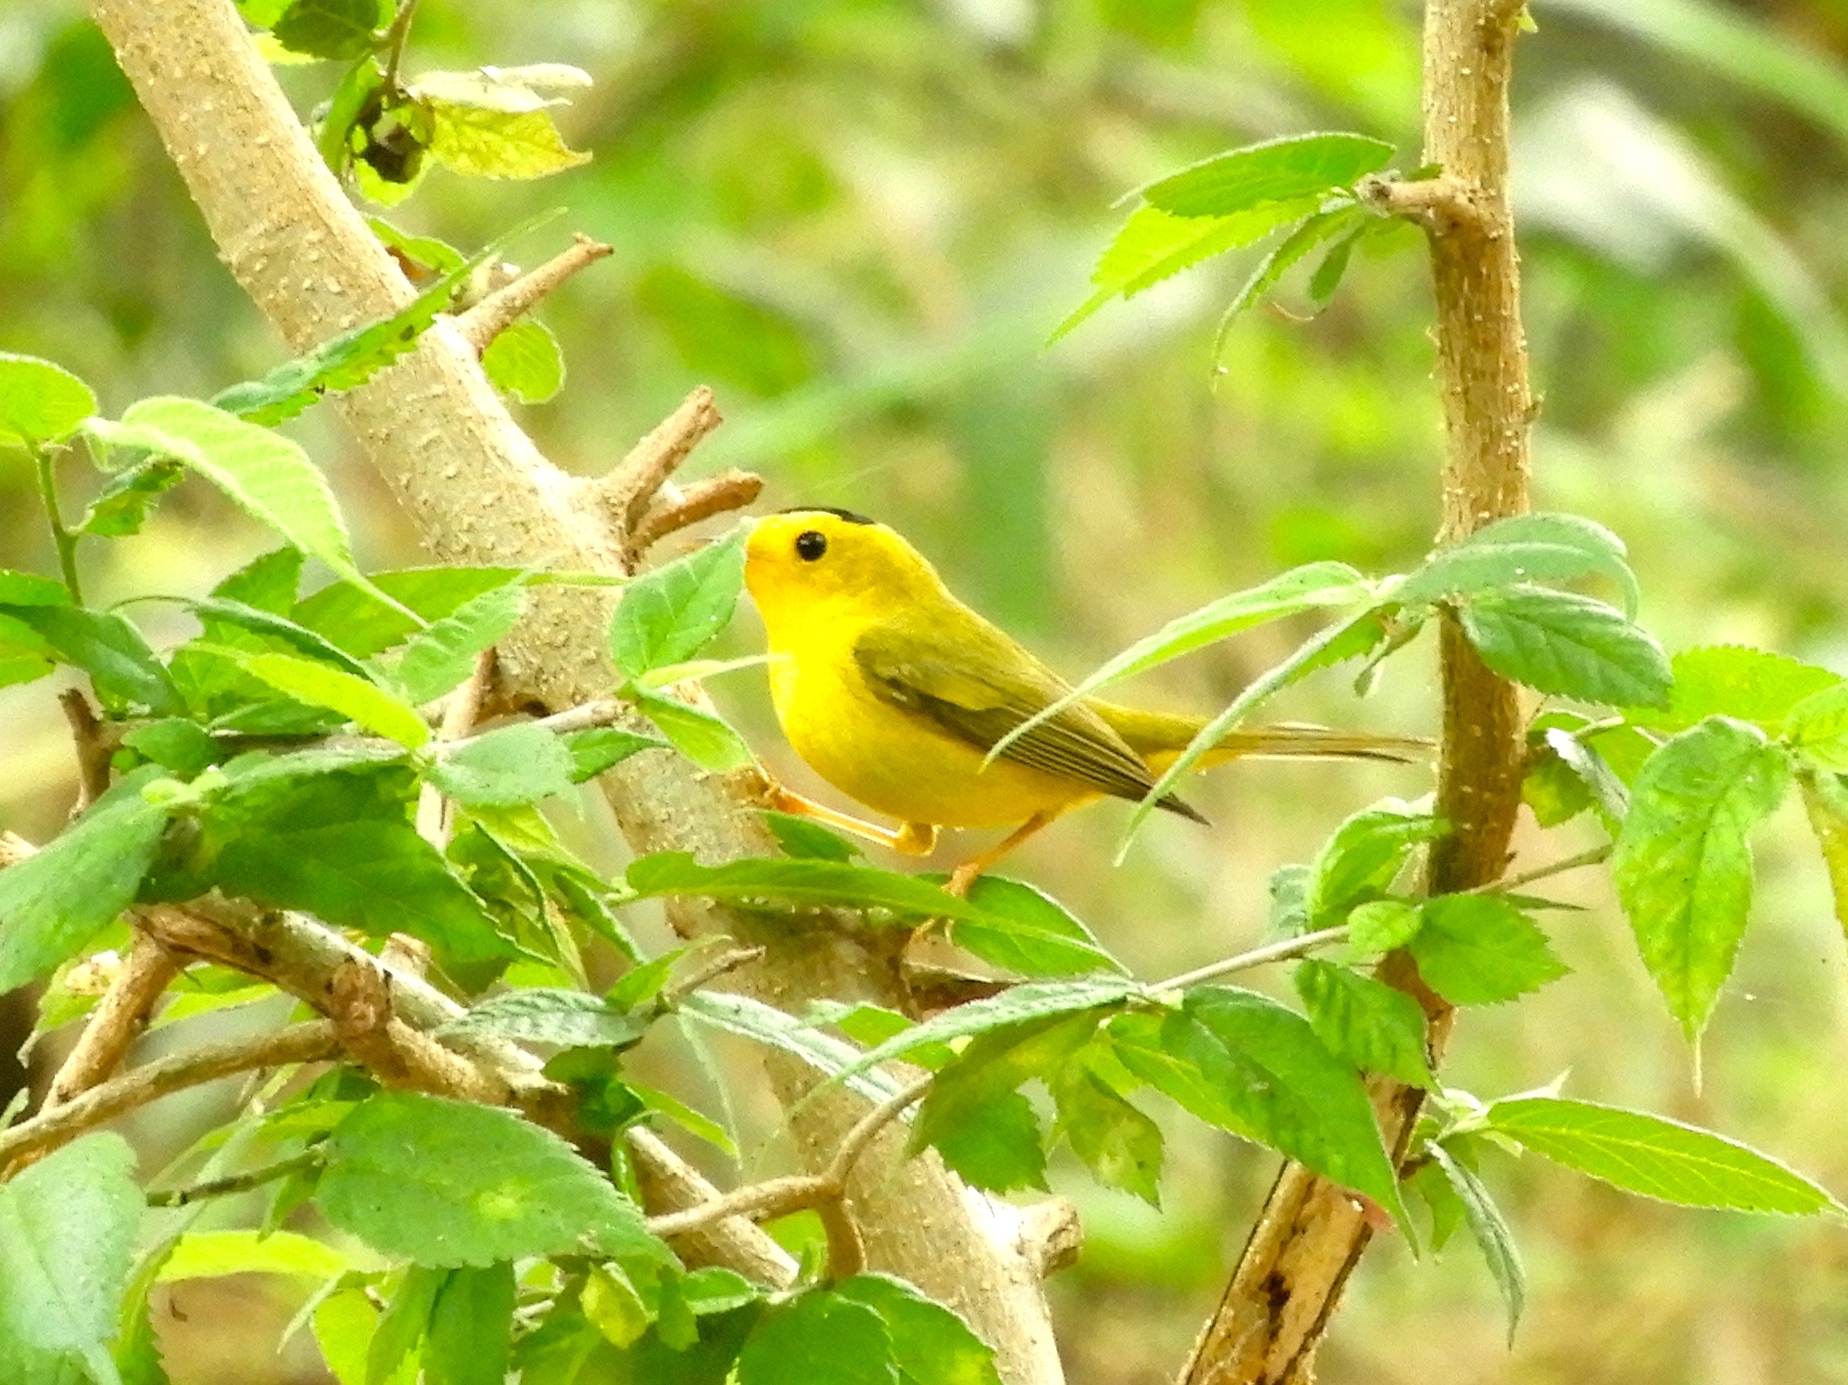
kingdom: Animalia
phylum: Chordata
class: Aves
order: Passeriformes
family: Parulidae
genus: Cardellina
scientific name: Cardellina pusilla
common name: Wilson's warbler
